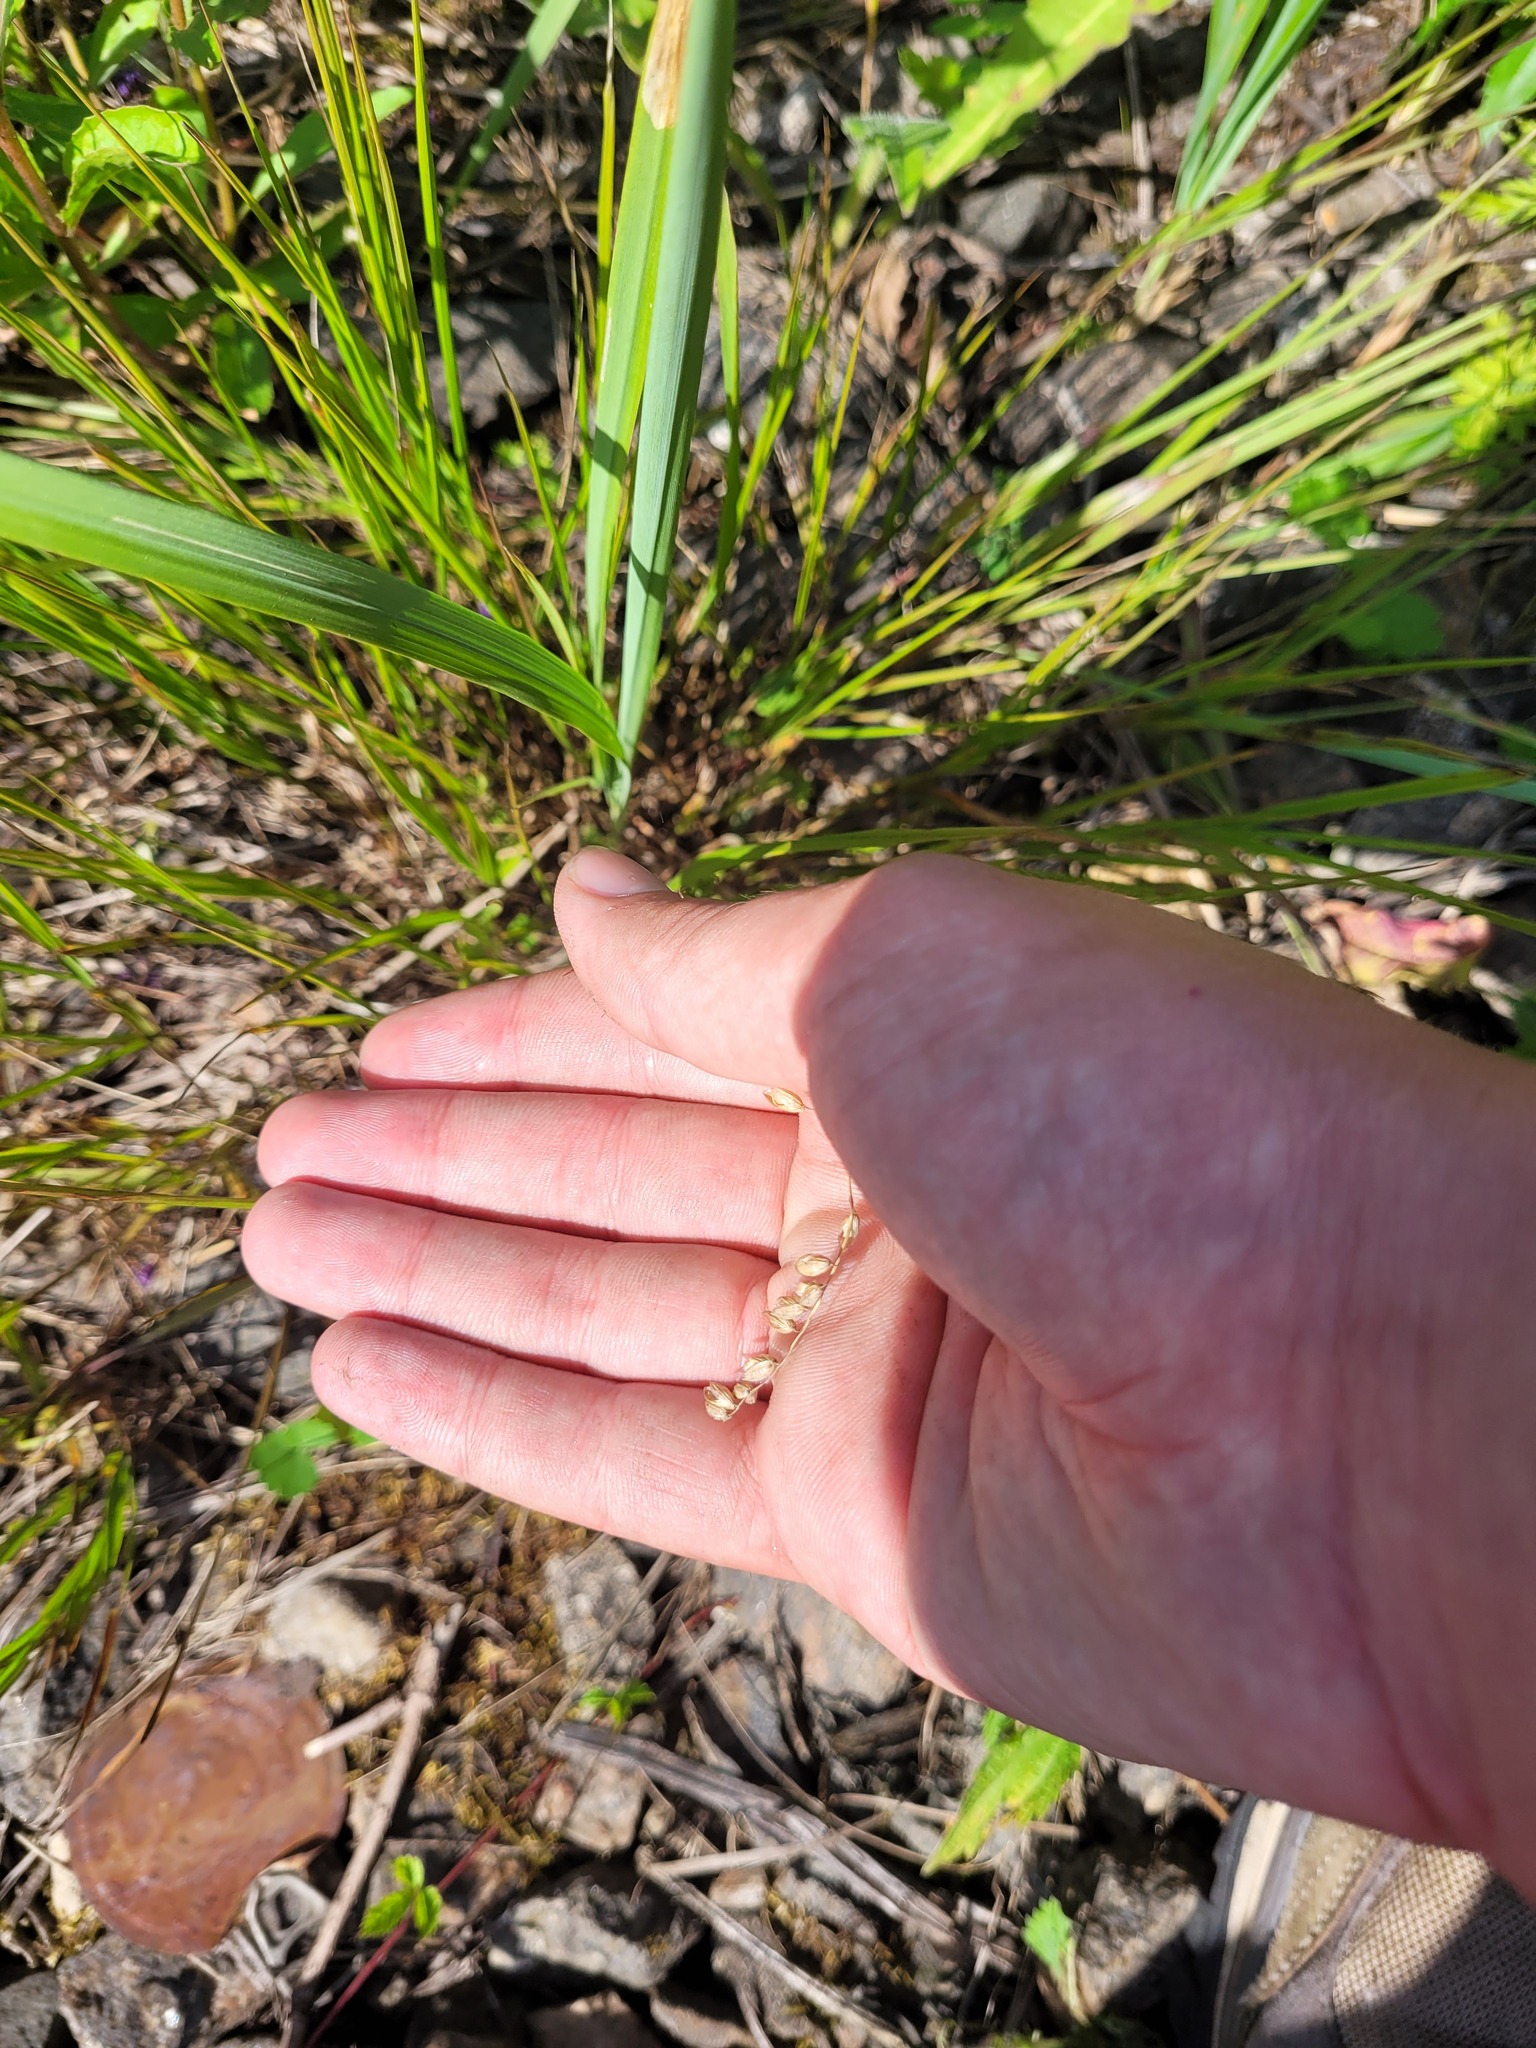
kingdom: Plantae
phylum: Tracheophyta
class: Liliopsida
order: Poales
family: Poaceae
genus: Melica
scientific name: Melica nutans
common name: Mountain melick
